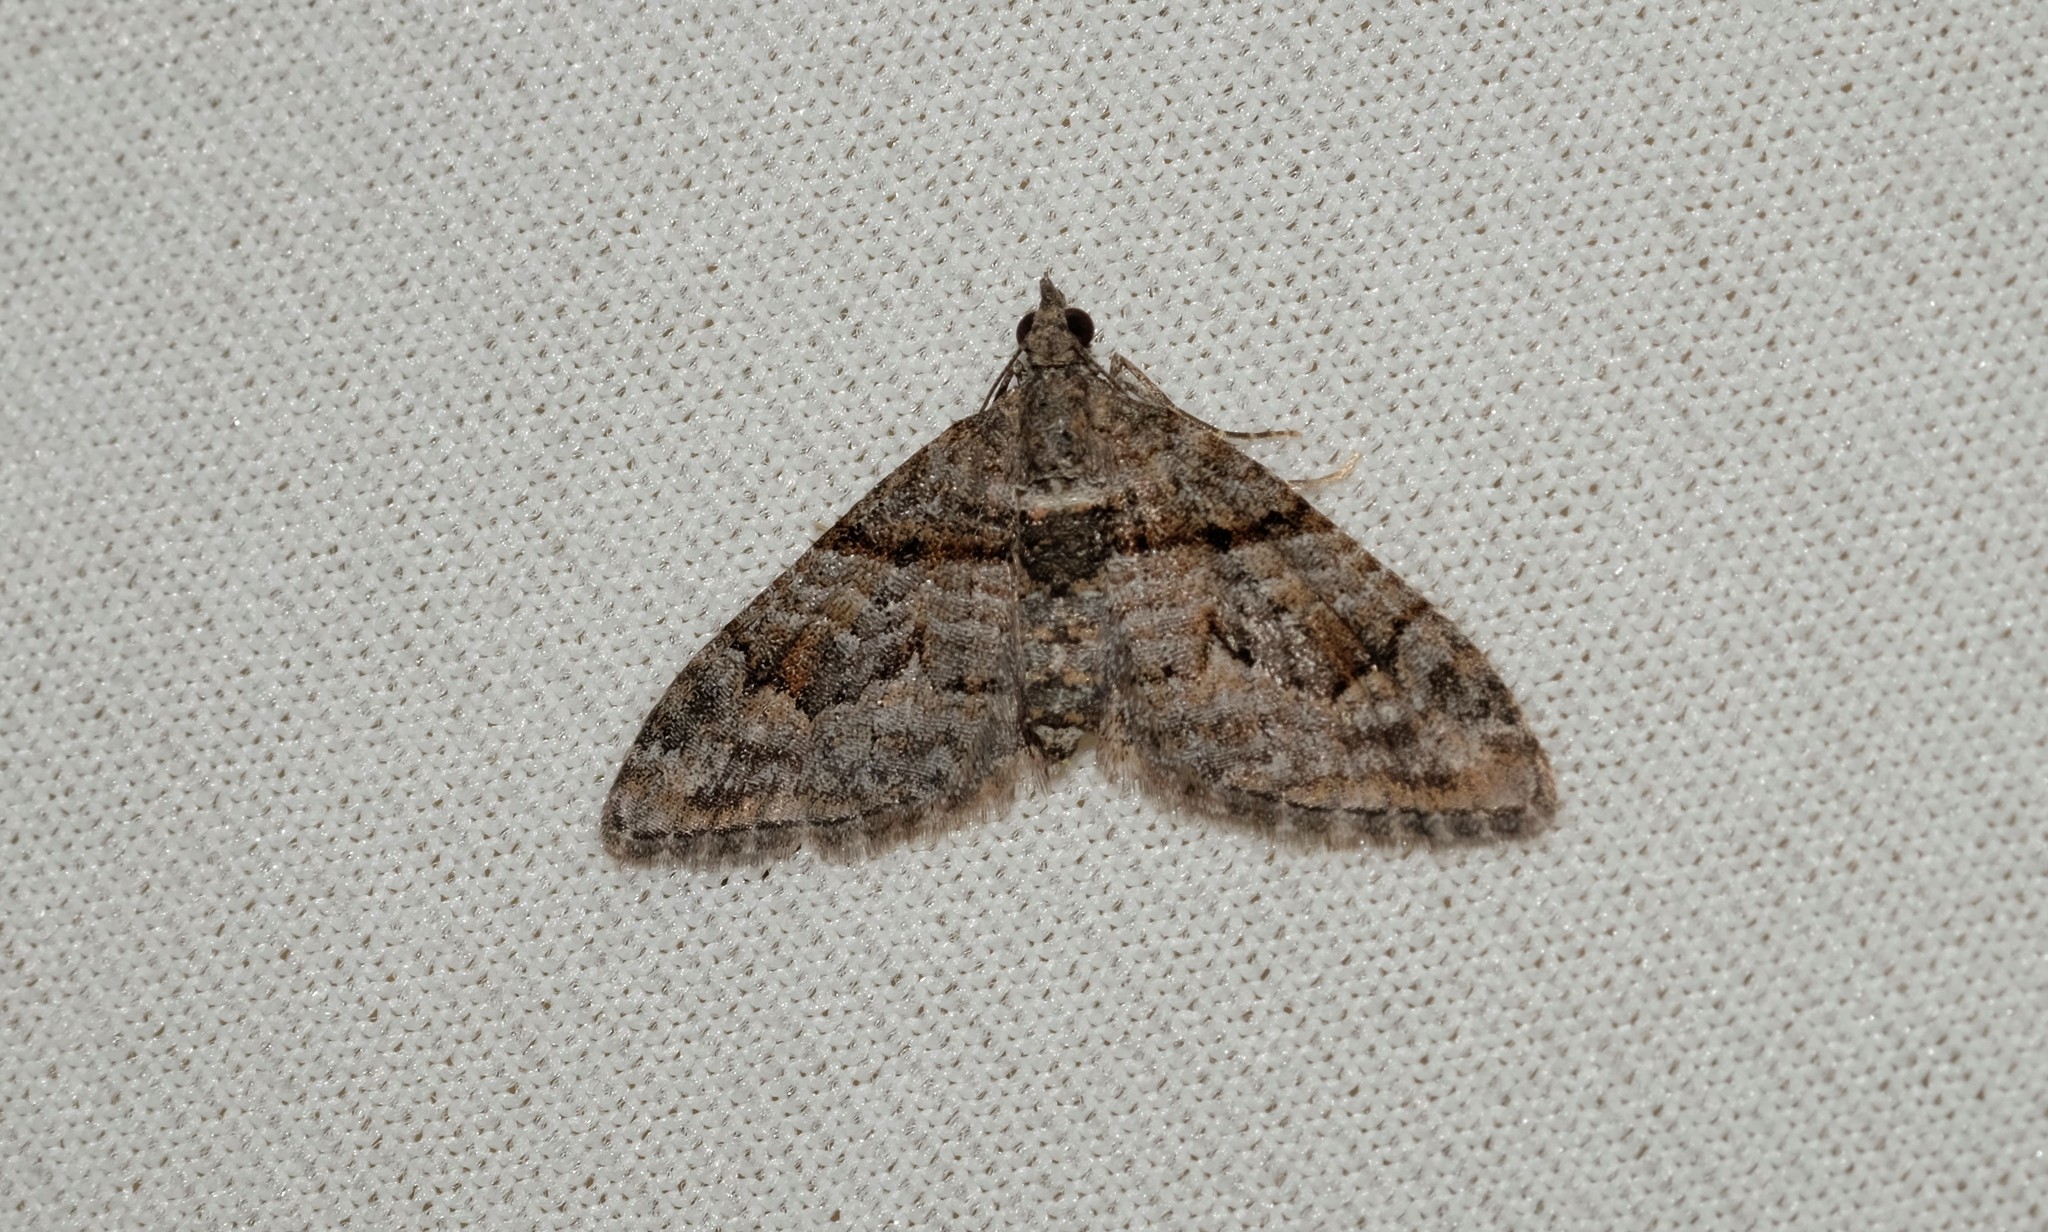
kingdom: Animalia
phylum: Arthropoda
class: Insecta
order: Lepidoptera
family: Geometridae
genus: Phrissogonus
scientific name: Phrissogonus laticostata
